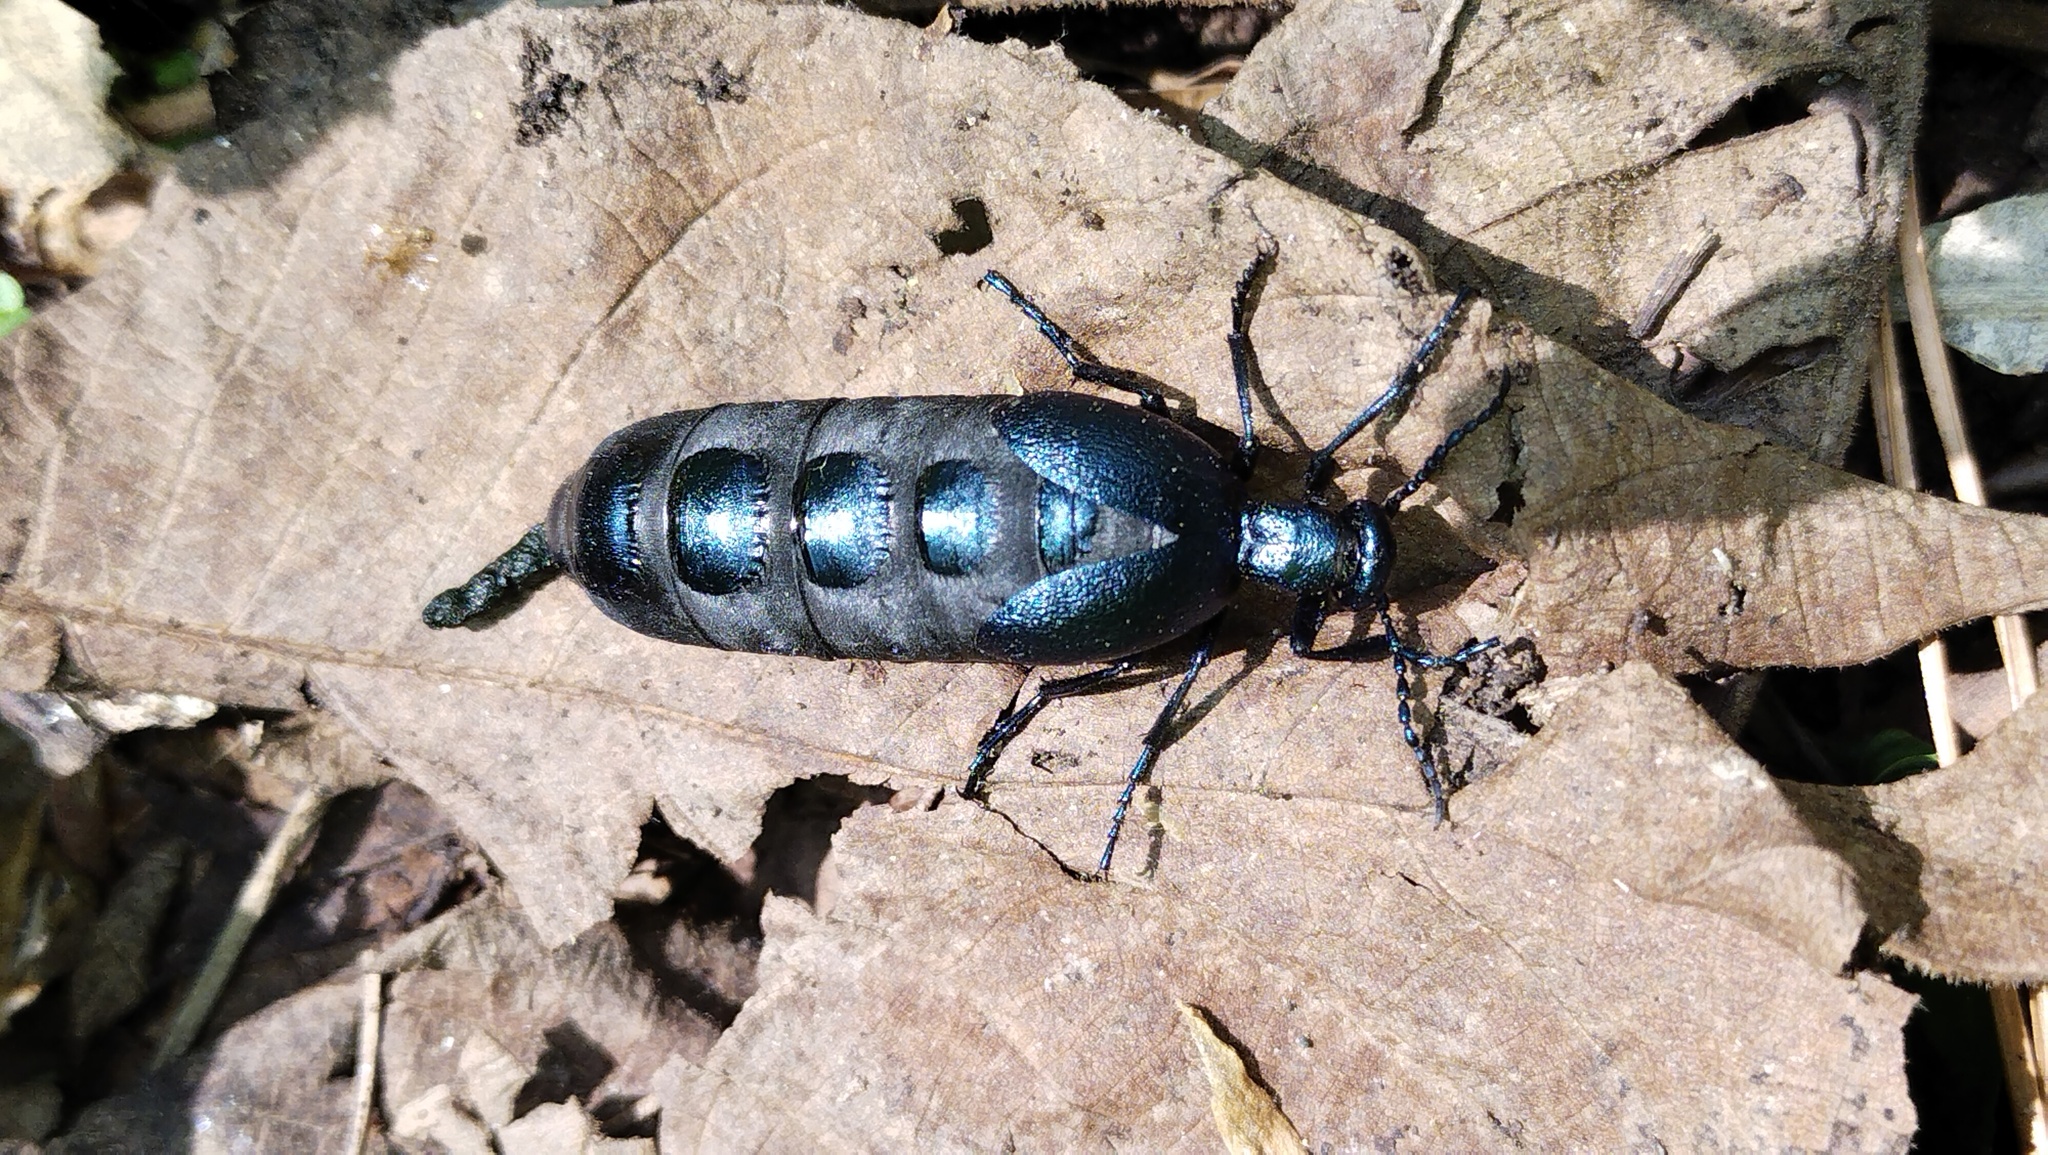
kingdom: Animalia
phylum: Arthropoda
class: Insecta
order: Coleoptera
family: Meloidae
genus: Meloe
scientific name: Meloe violaceus
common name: Violet oil-beetle
